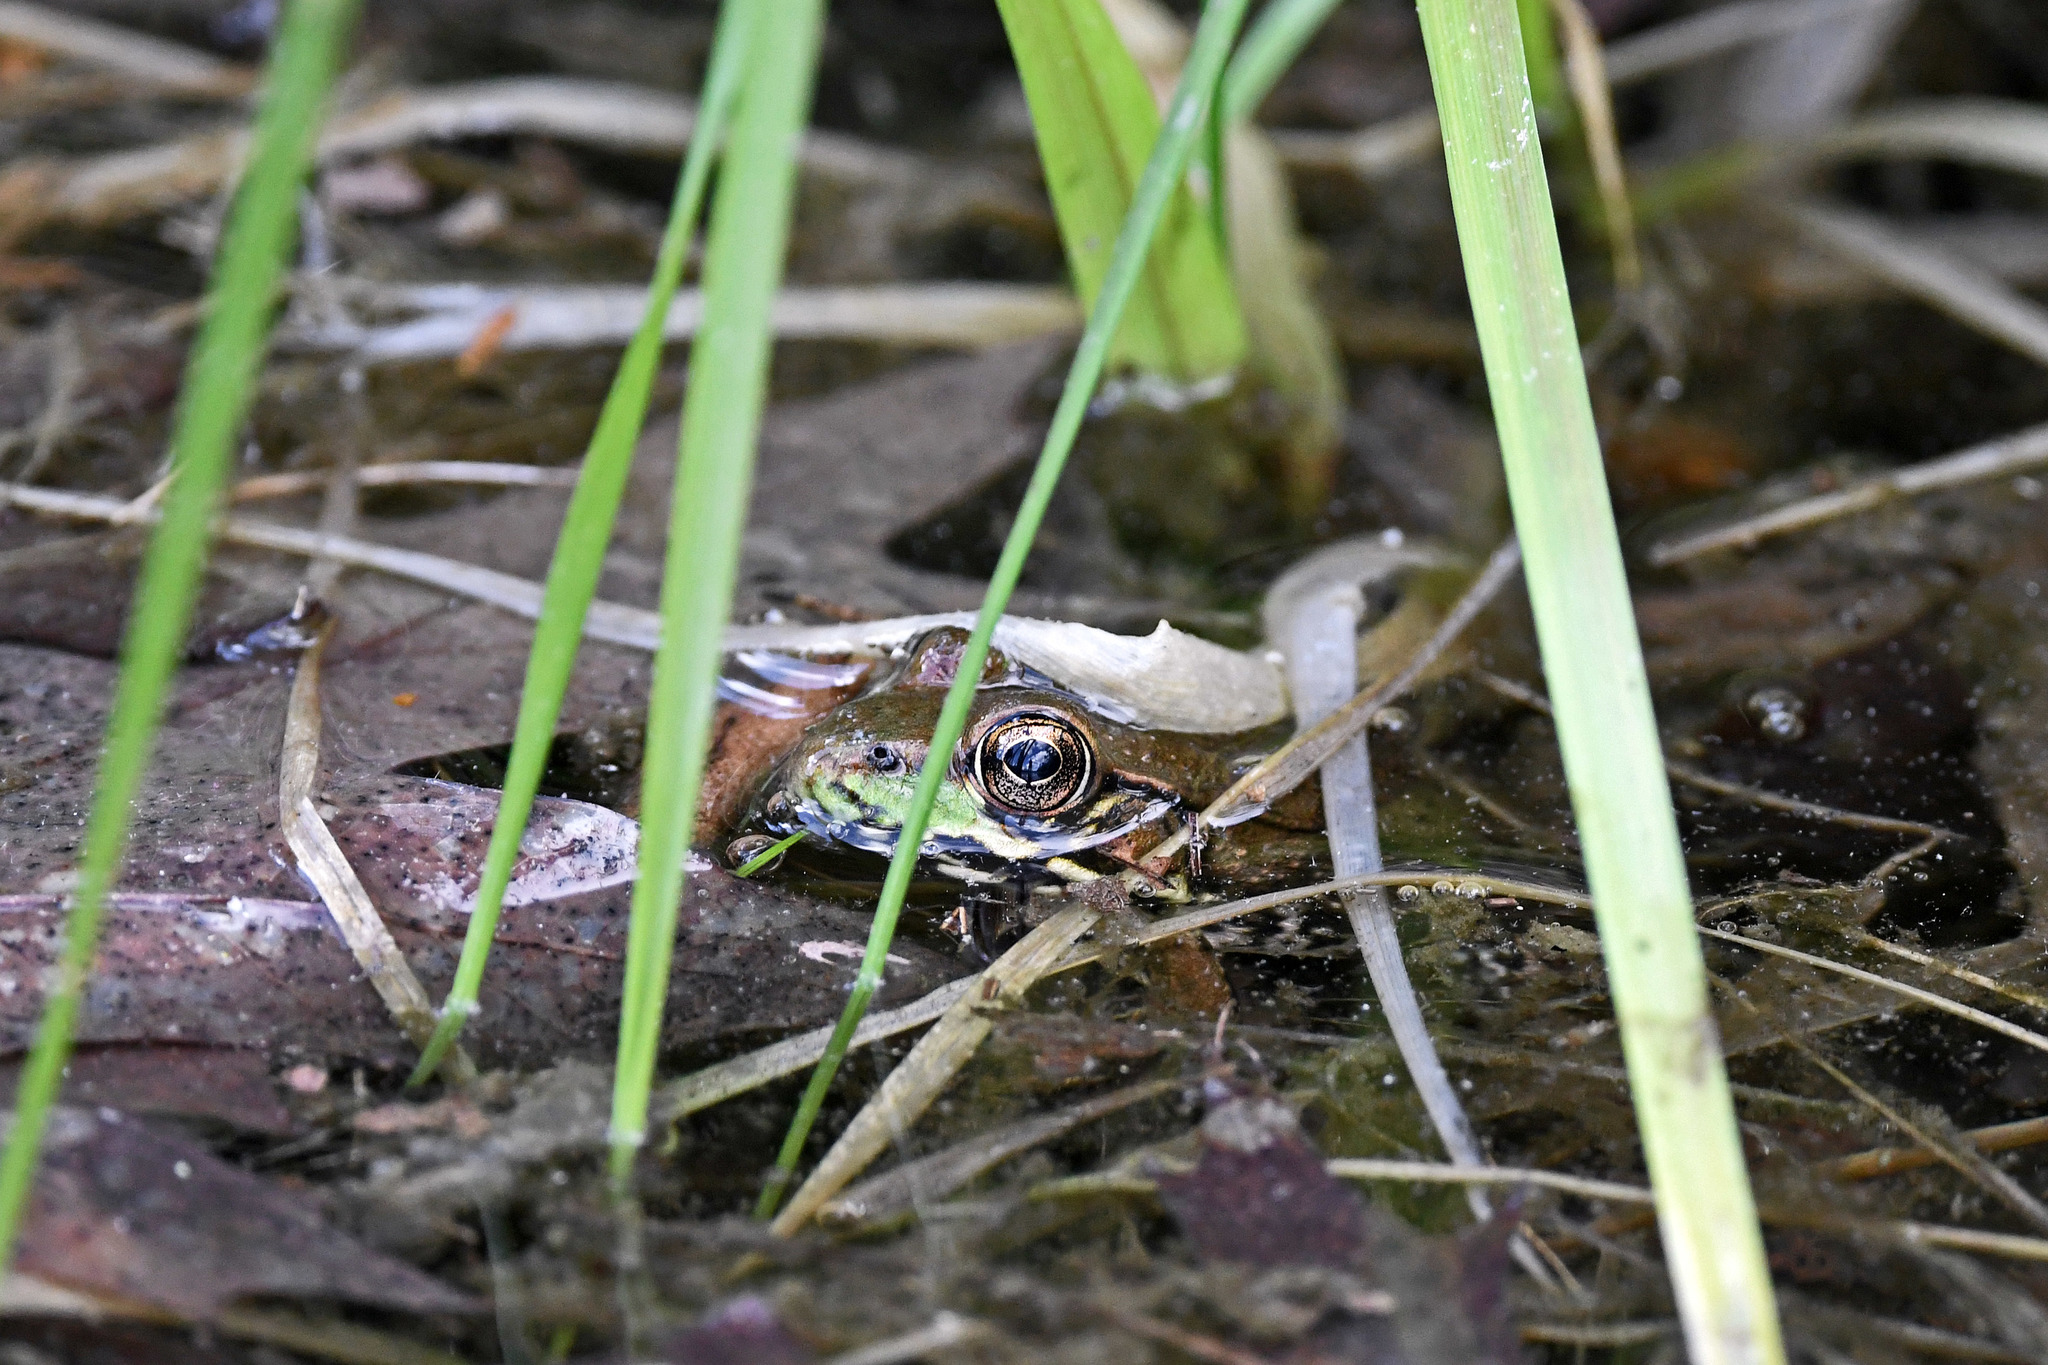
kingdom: Animalia
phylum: Chordata
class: Amphibia
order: Anura
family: Ranidae
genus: Lithobates
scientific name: Lithobates clamitans
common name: Green frog
